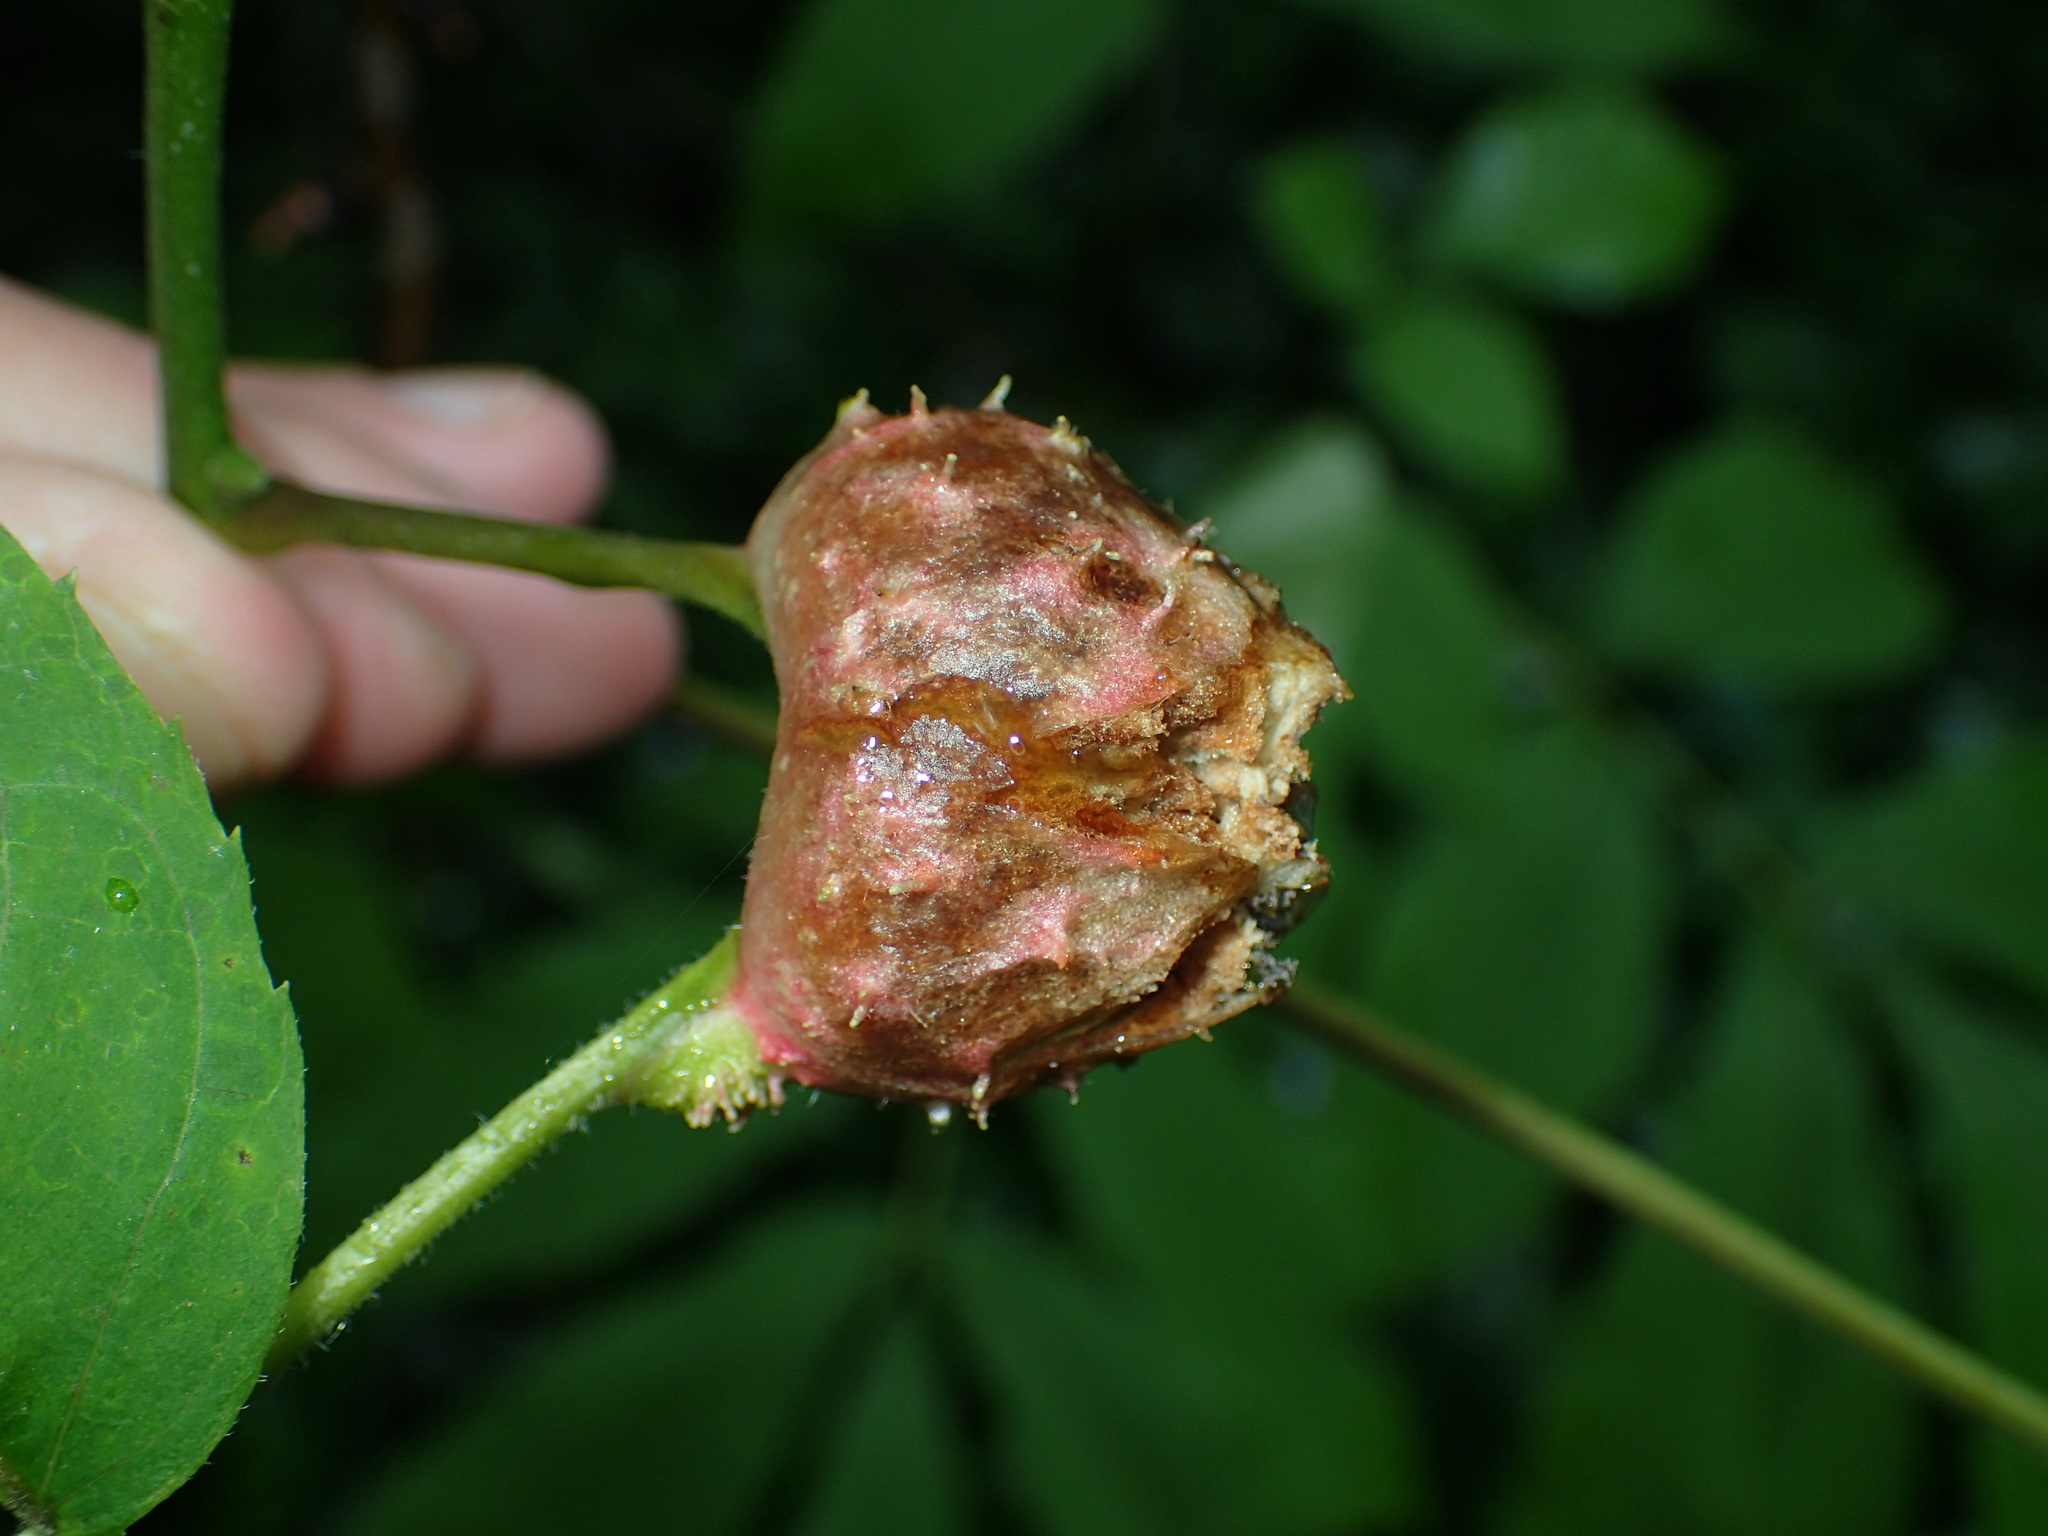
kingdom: Animalia
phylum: Arthropoda
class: Insecta
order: Hemiptera
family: Phylloxeridae
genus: Phylloxera
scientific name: Phylloxera spinosa
